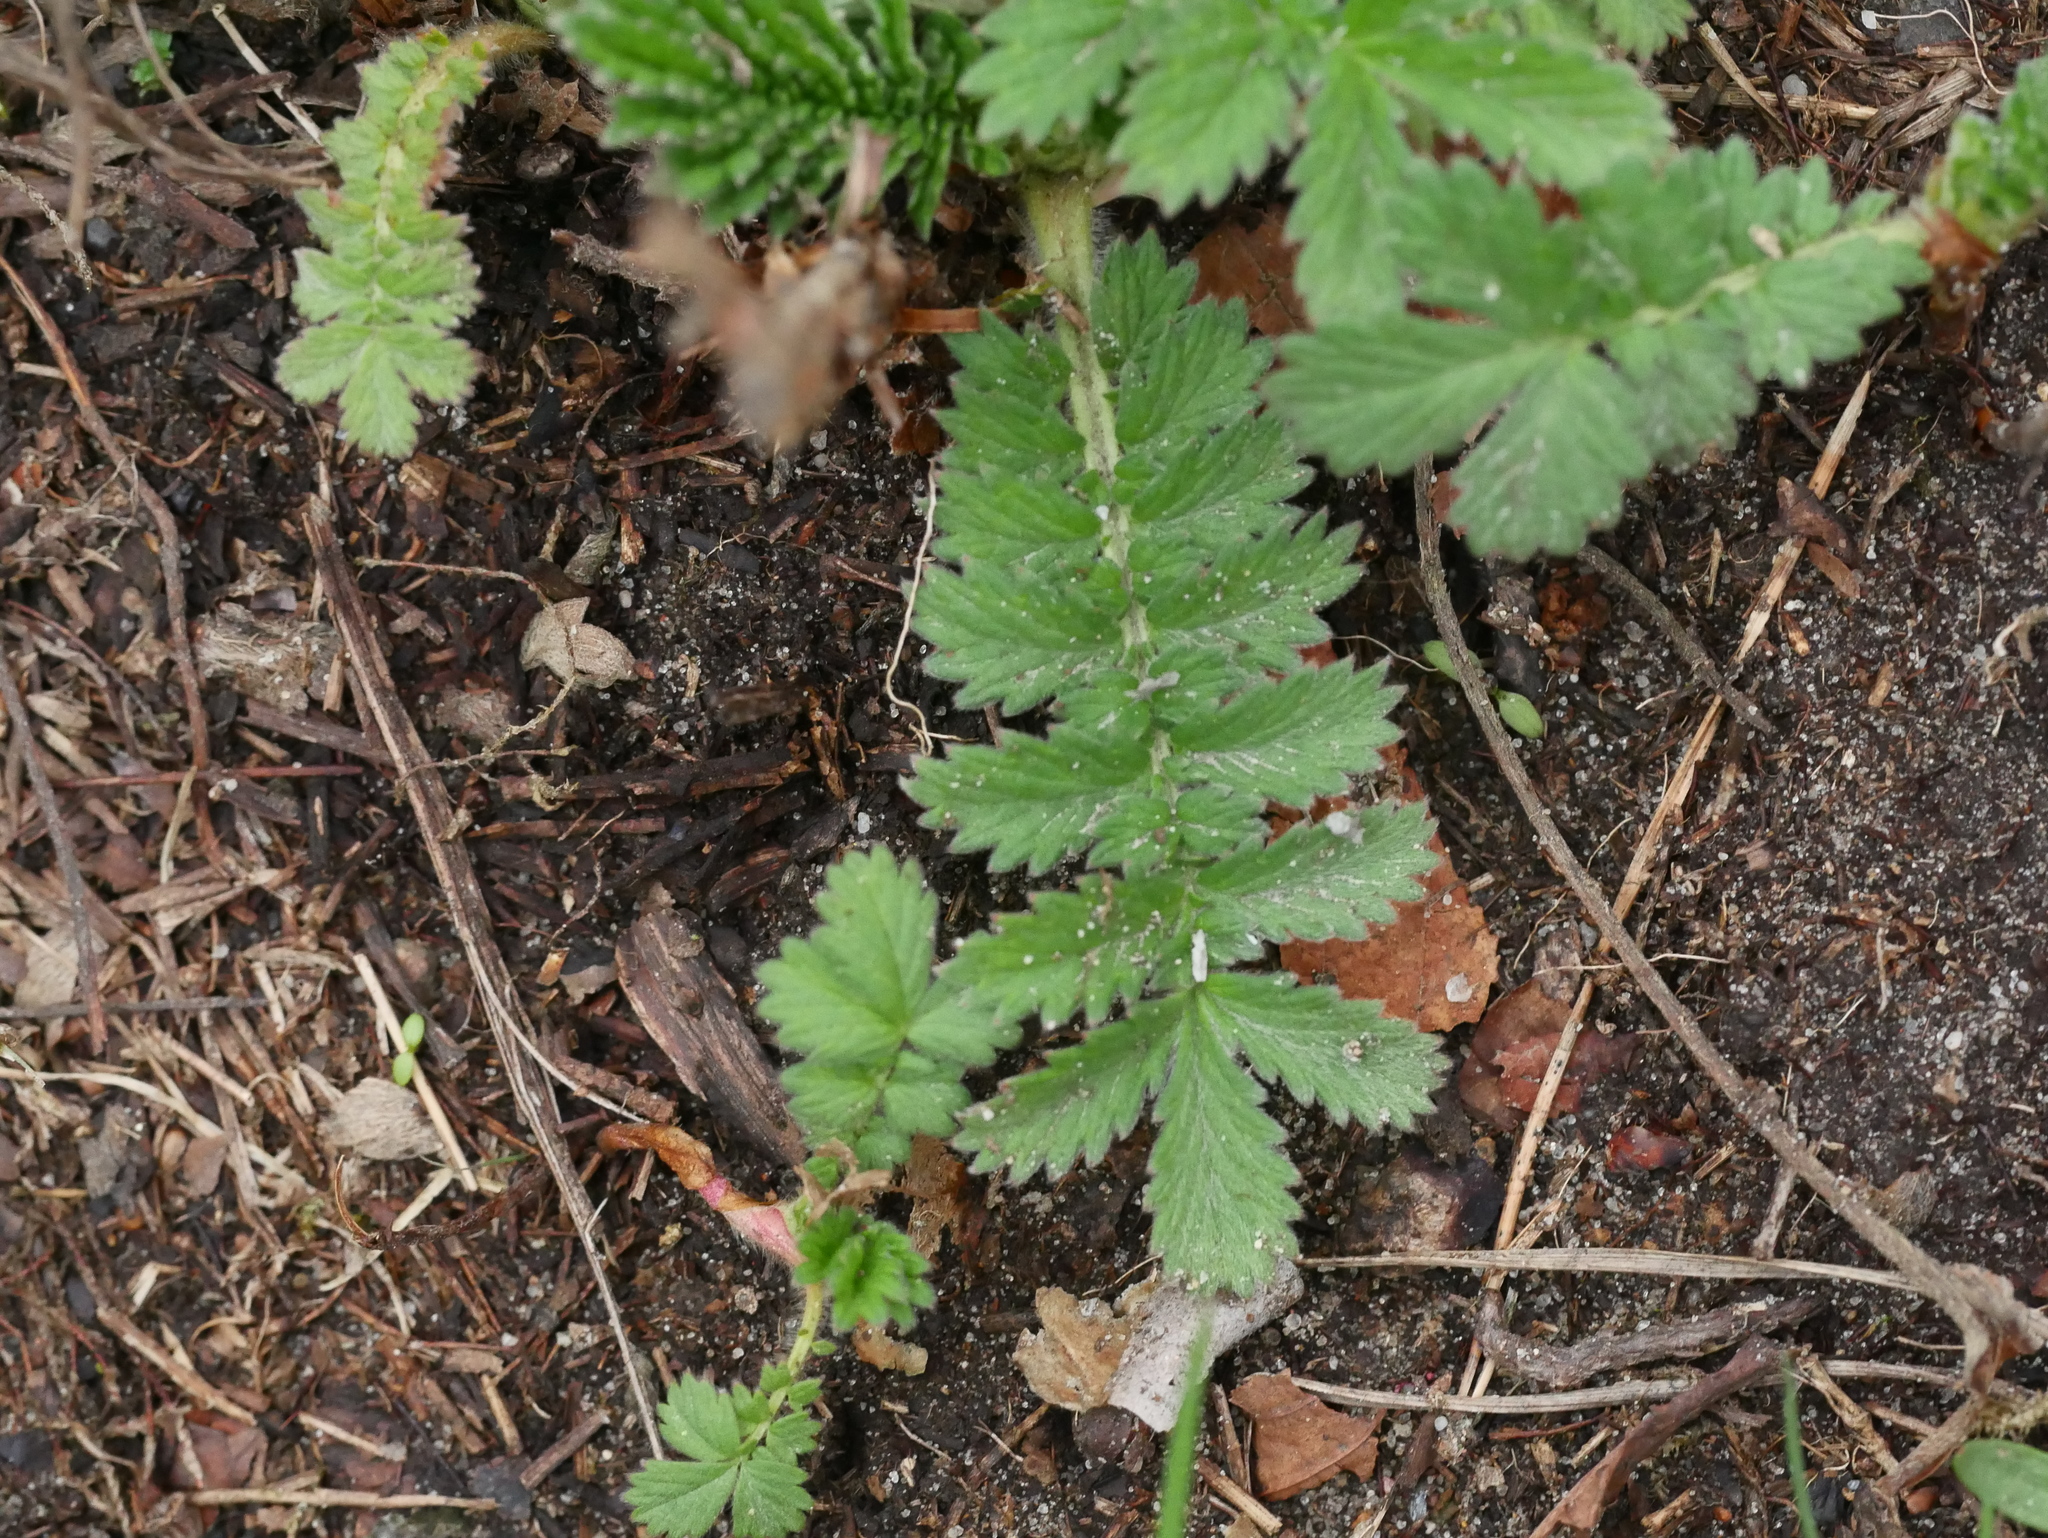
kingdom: Plantae
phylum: Tracheophyta
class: Magnoliopsida
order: Rosales
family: Rosaceae
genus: Agrimonia
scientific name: Agrimonia eupatoria
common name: Agrimony
